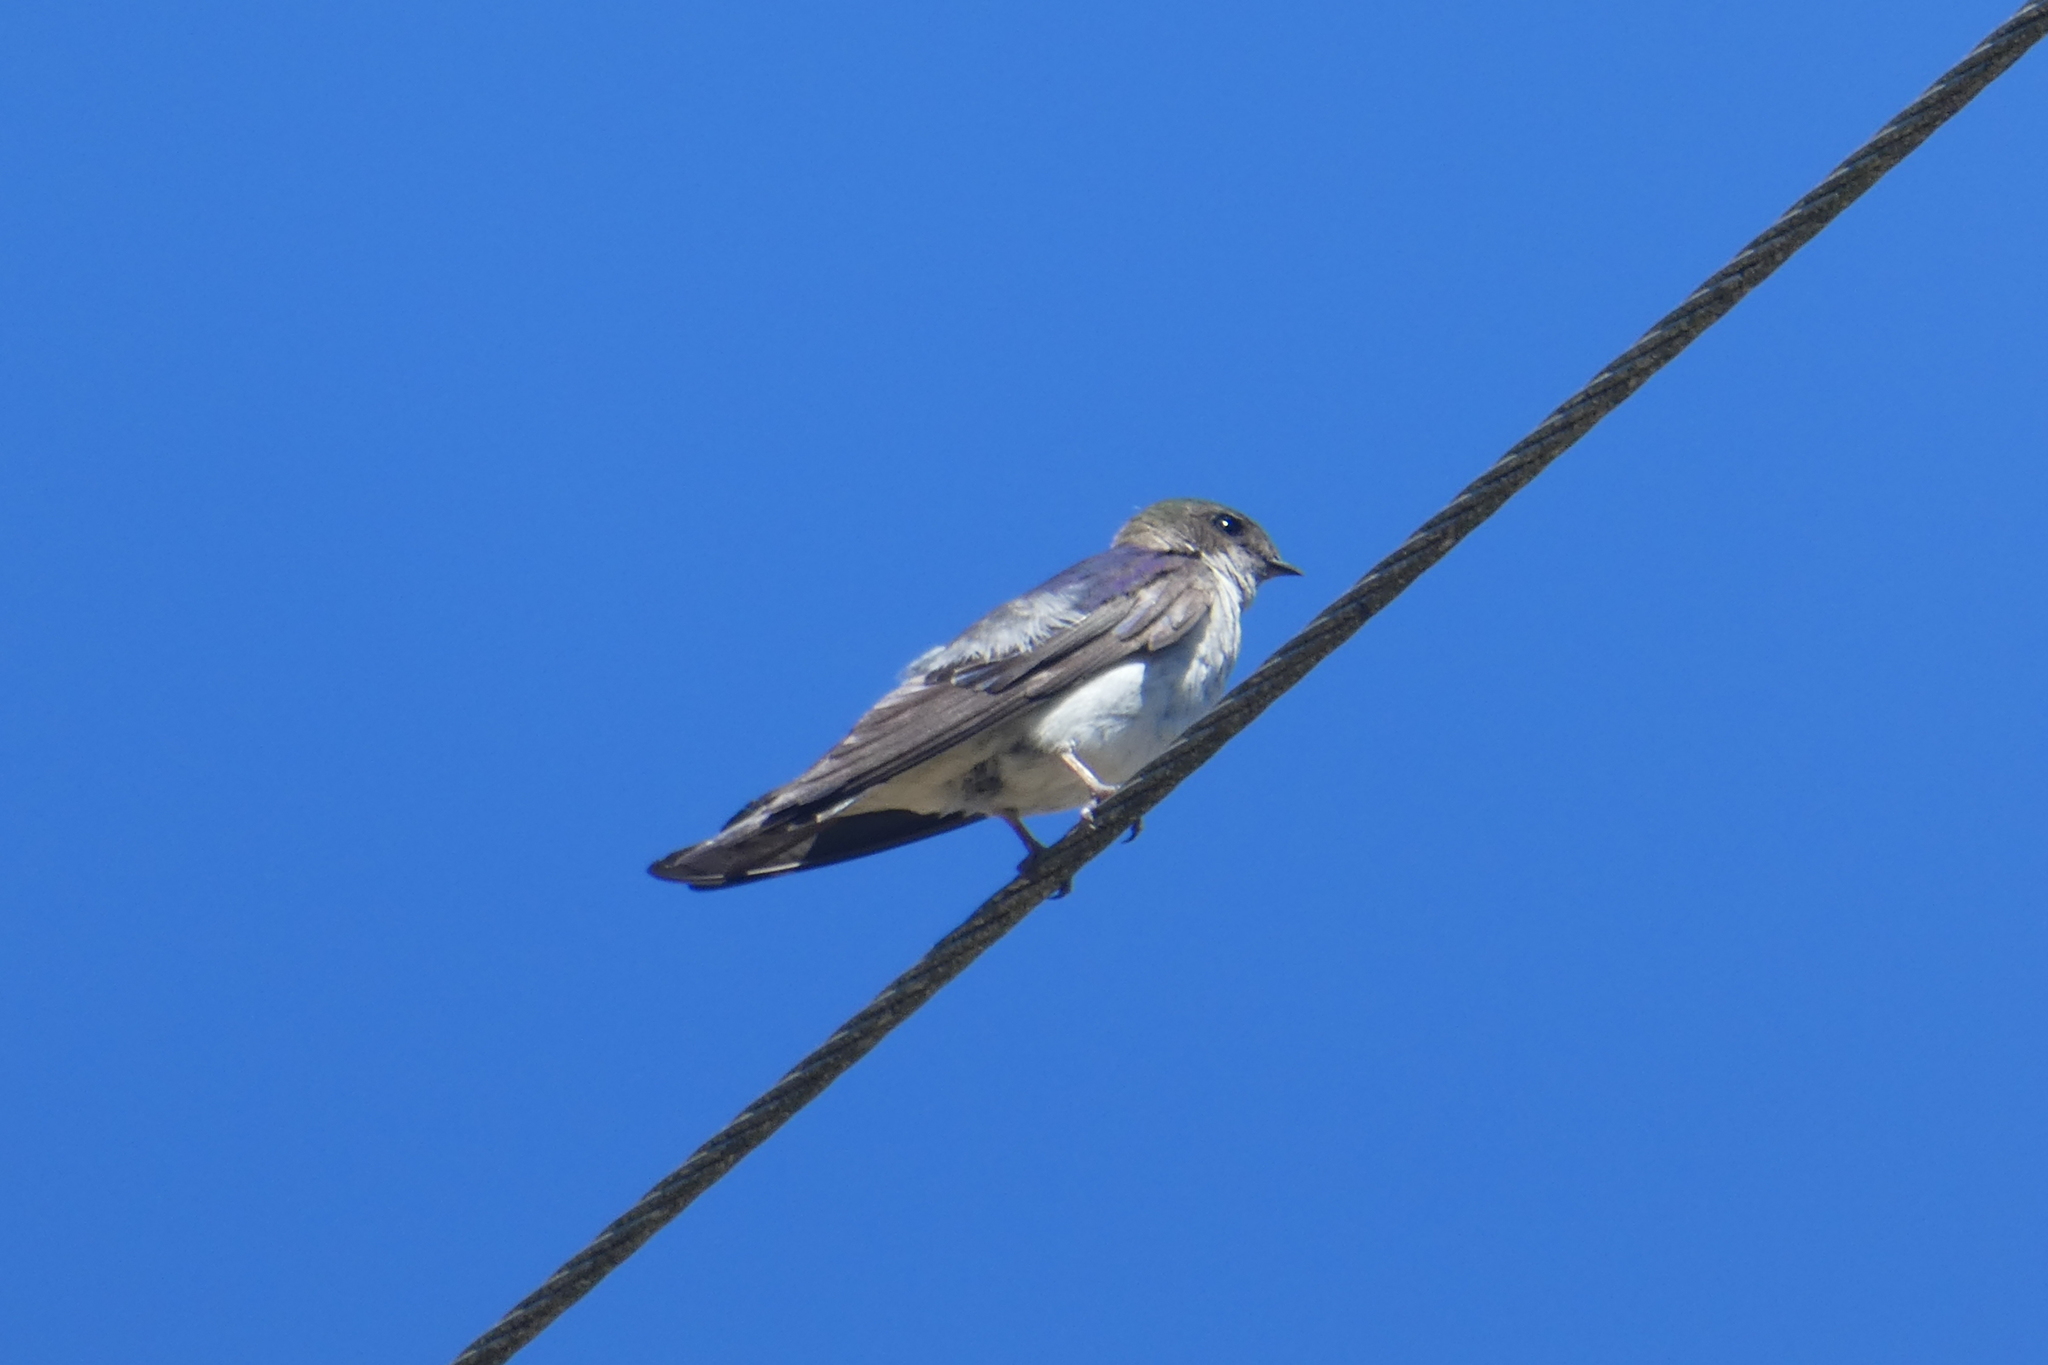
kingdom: Animalia
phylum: Chordata
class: Aves
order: Passeriformes
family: Hirundinidae
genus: Tachycineta
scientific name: Tachycineta thalassina
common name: Violet-green swallow
